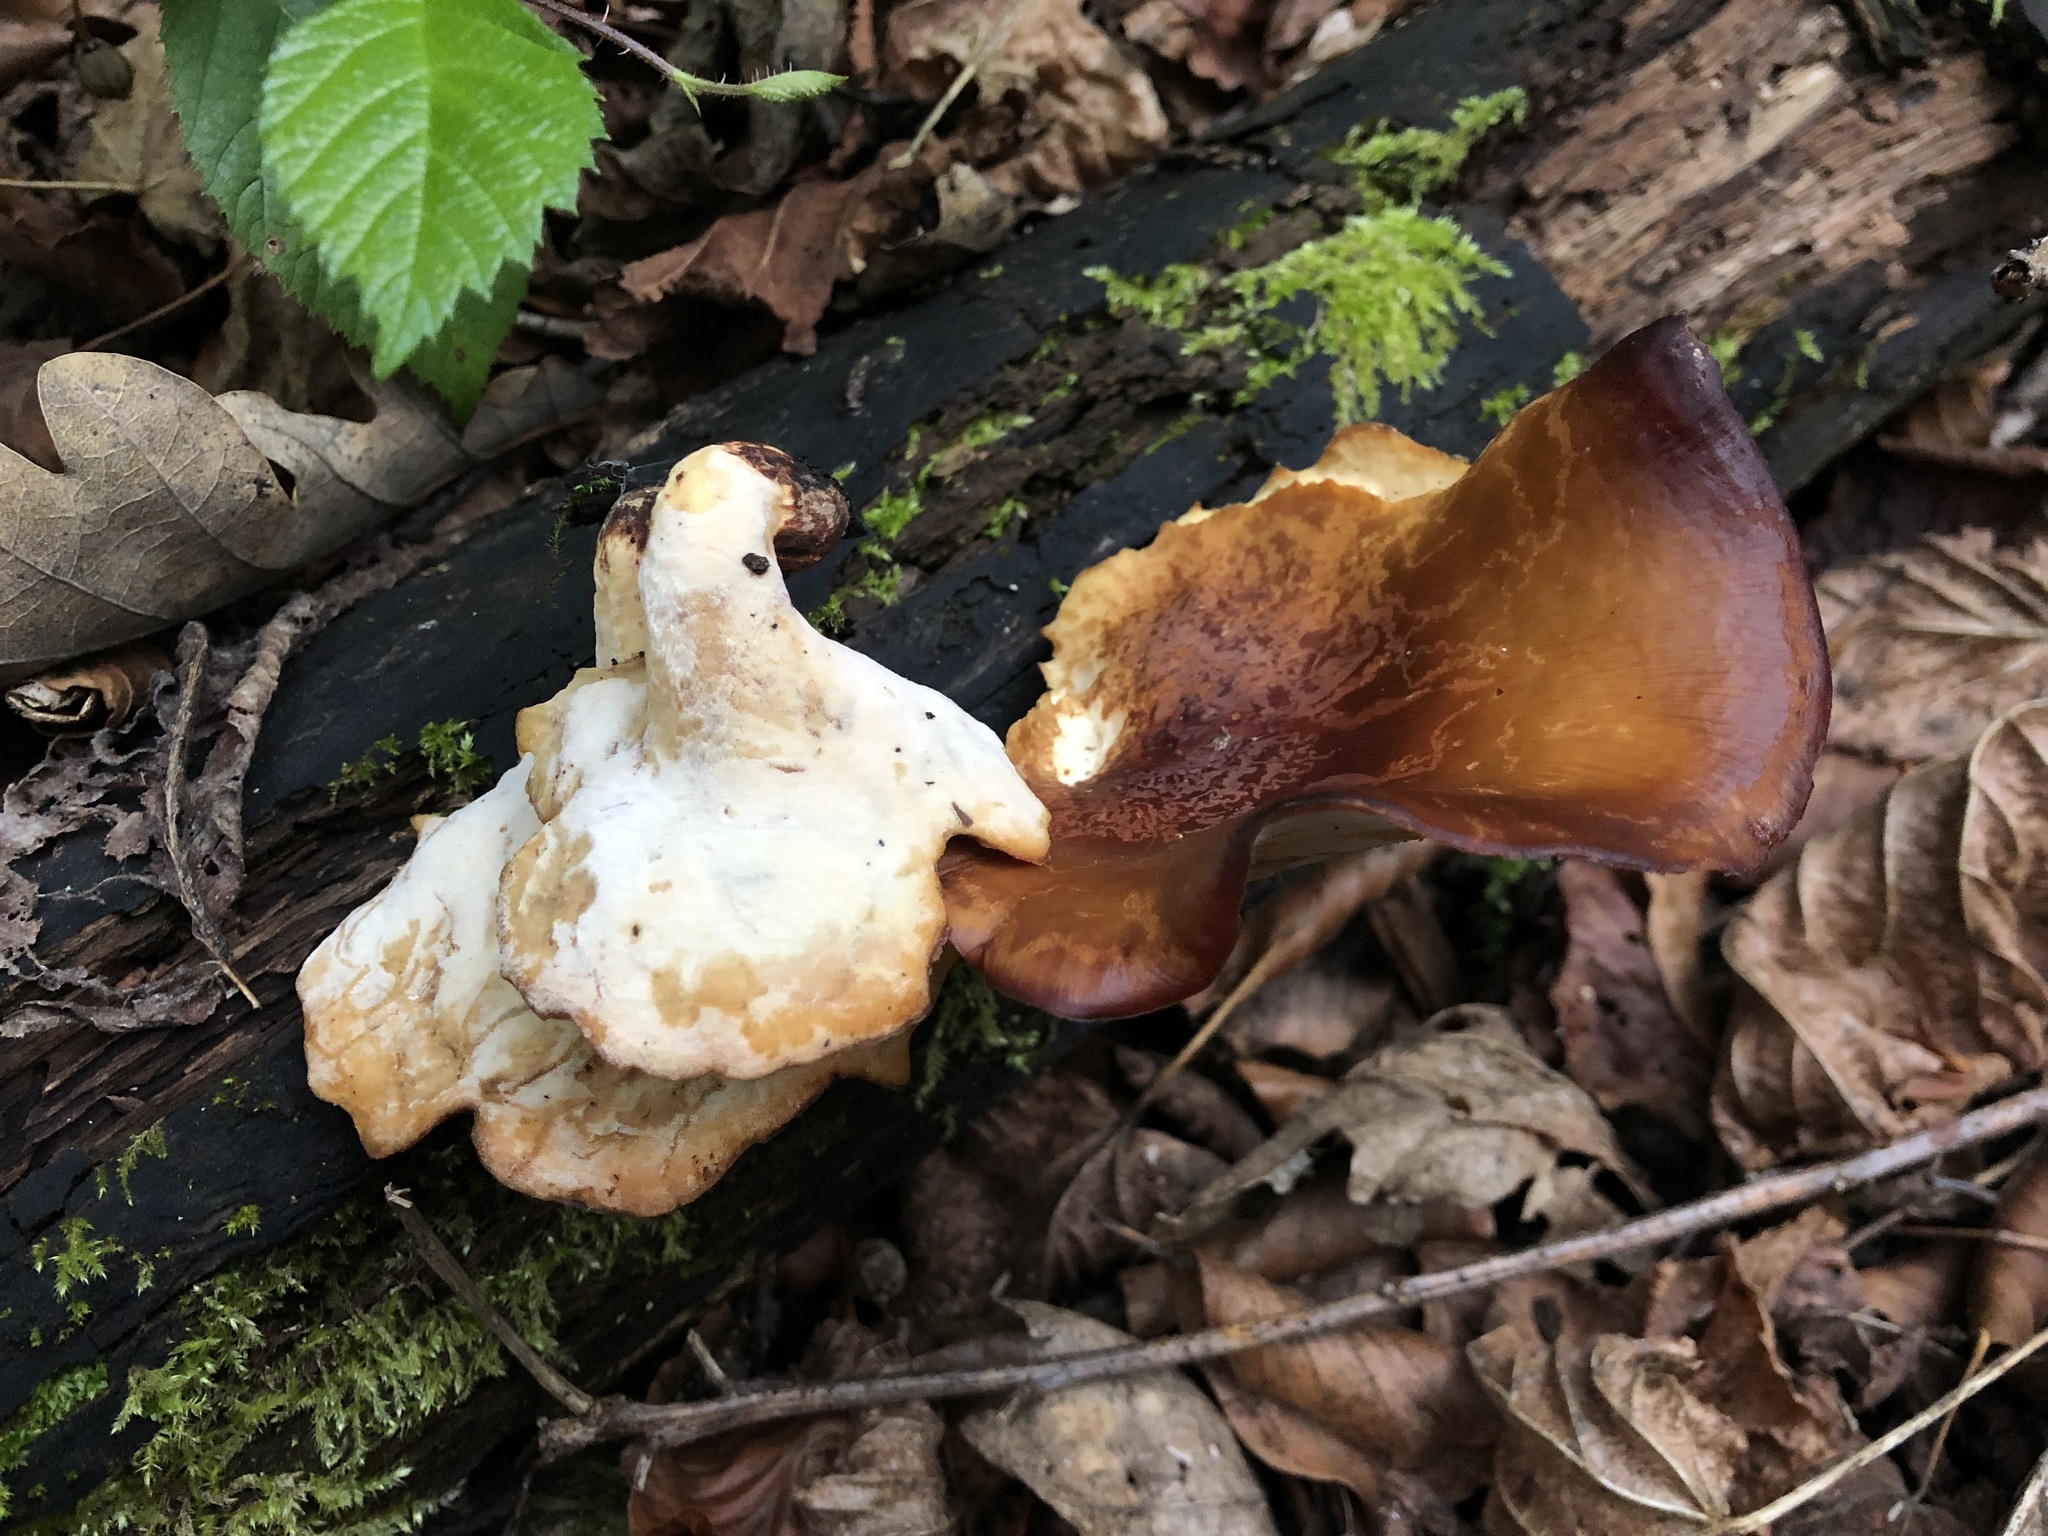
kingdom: Fungi
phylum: Basidiomycota
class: Agaricomycetes
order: Polyporales
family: Polyporaceae
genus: Picipes
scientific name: Picipes badius
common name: Bay polypore
